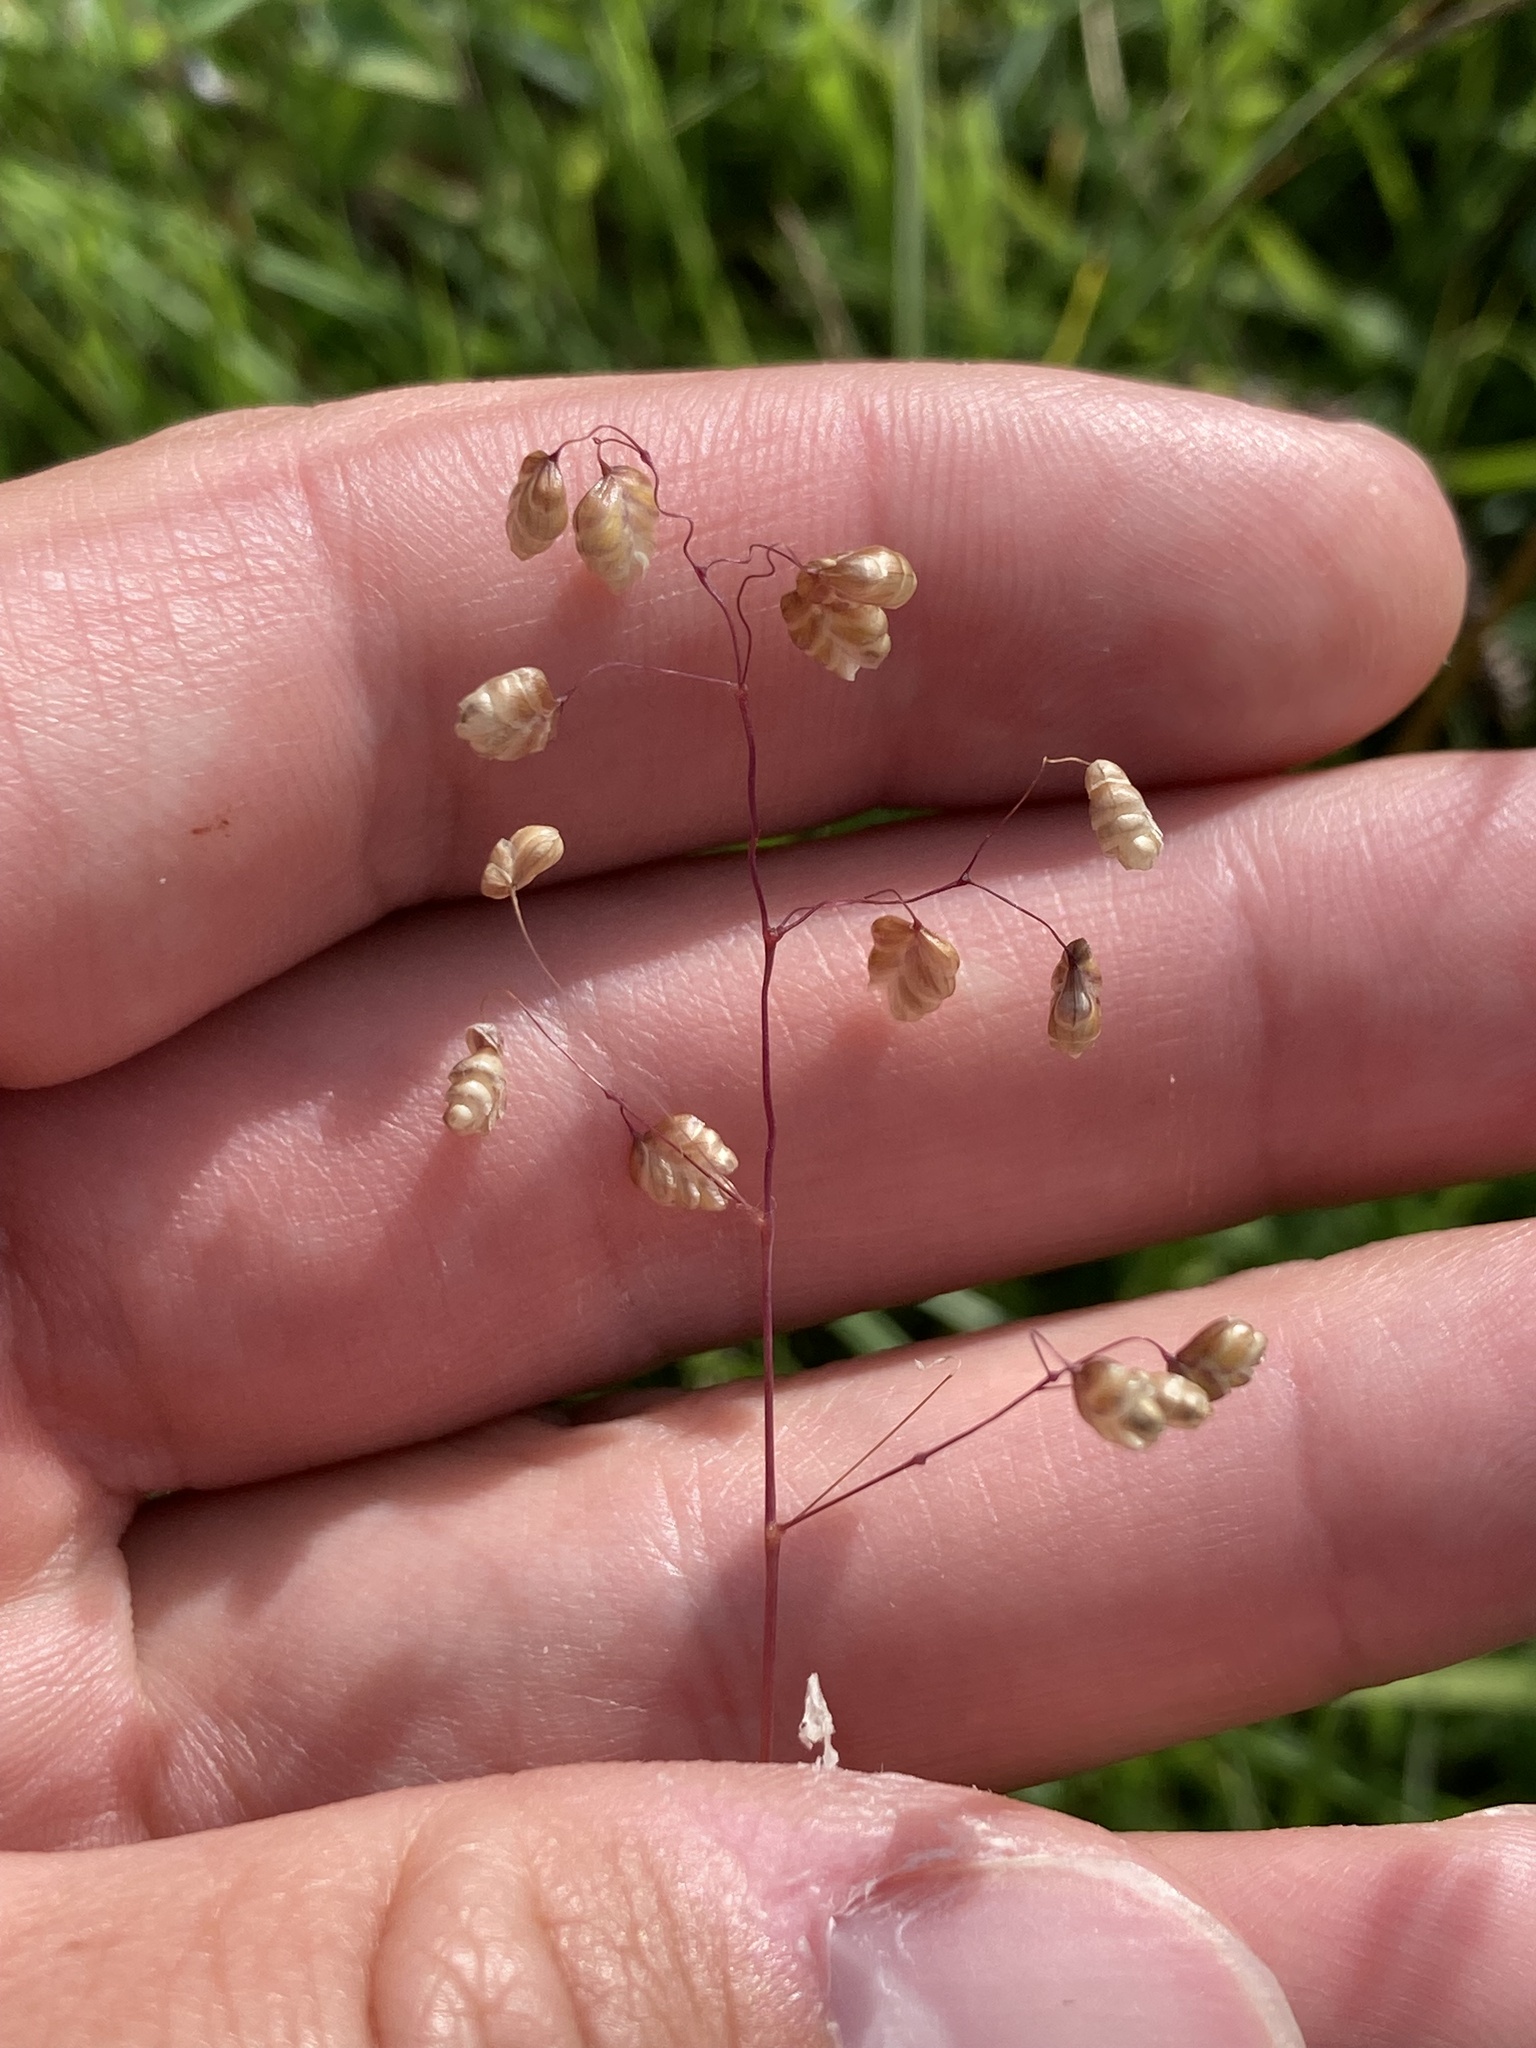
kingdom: Plantae
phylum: Tracheophyta
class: Liliopsida
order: Poales
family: Poaceae
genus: Briza
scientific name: Briza media
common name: Quaking grass
